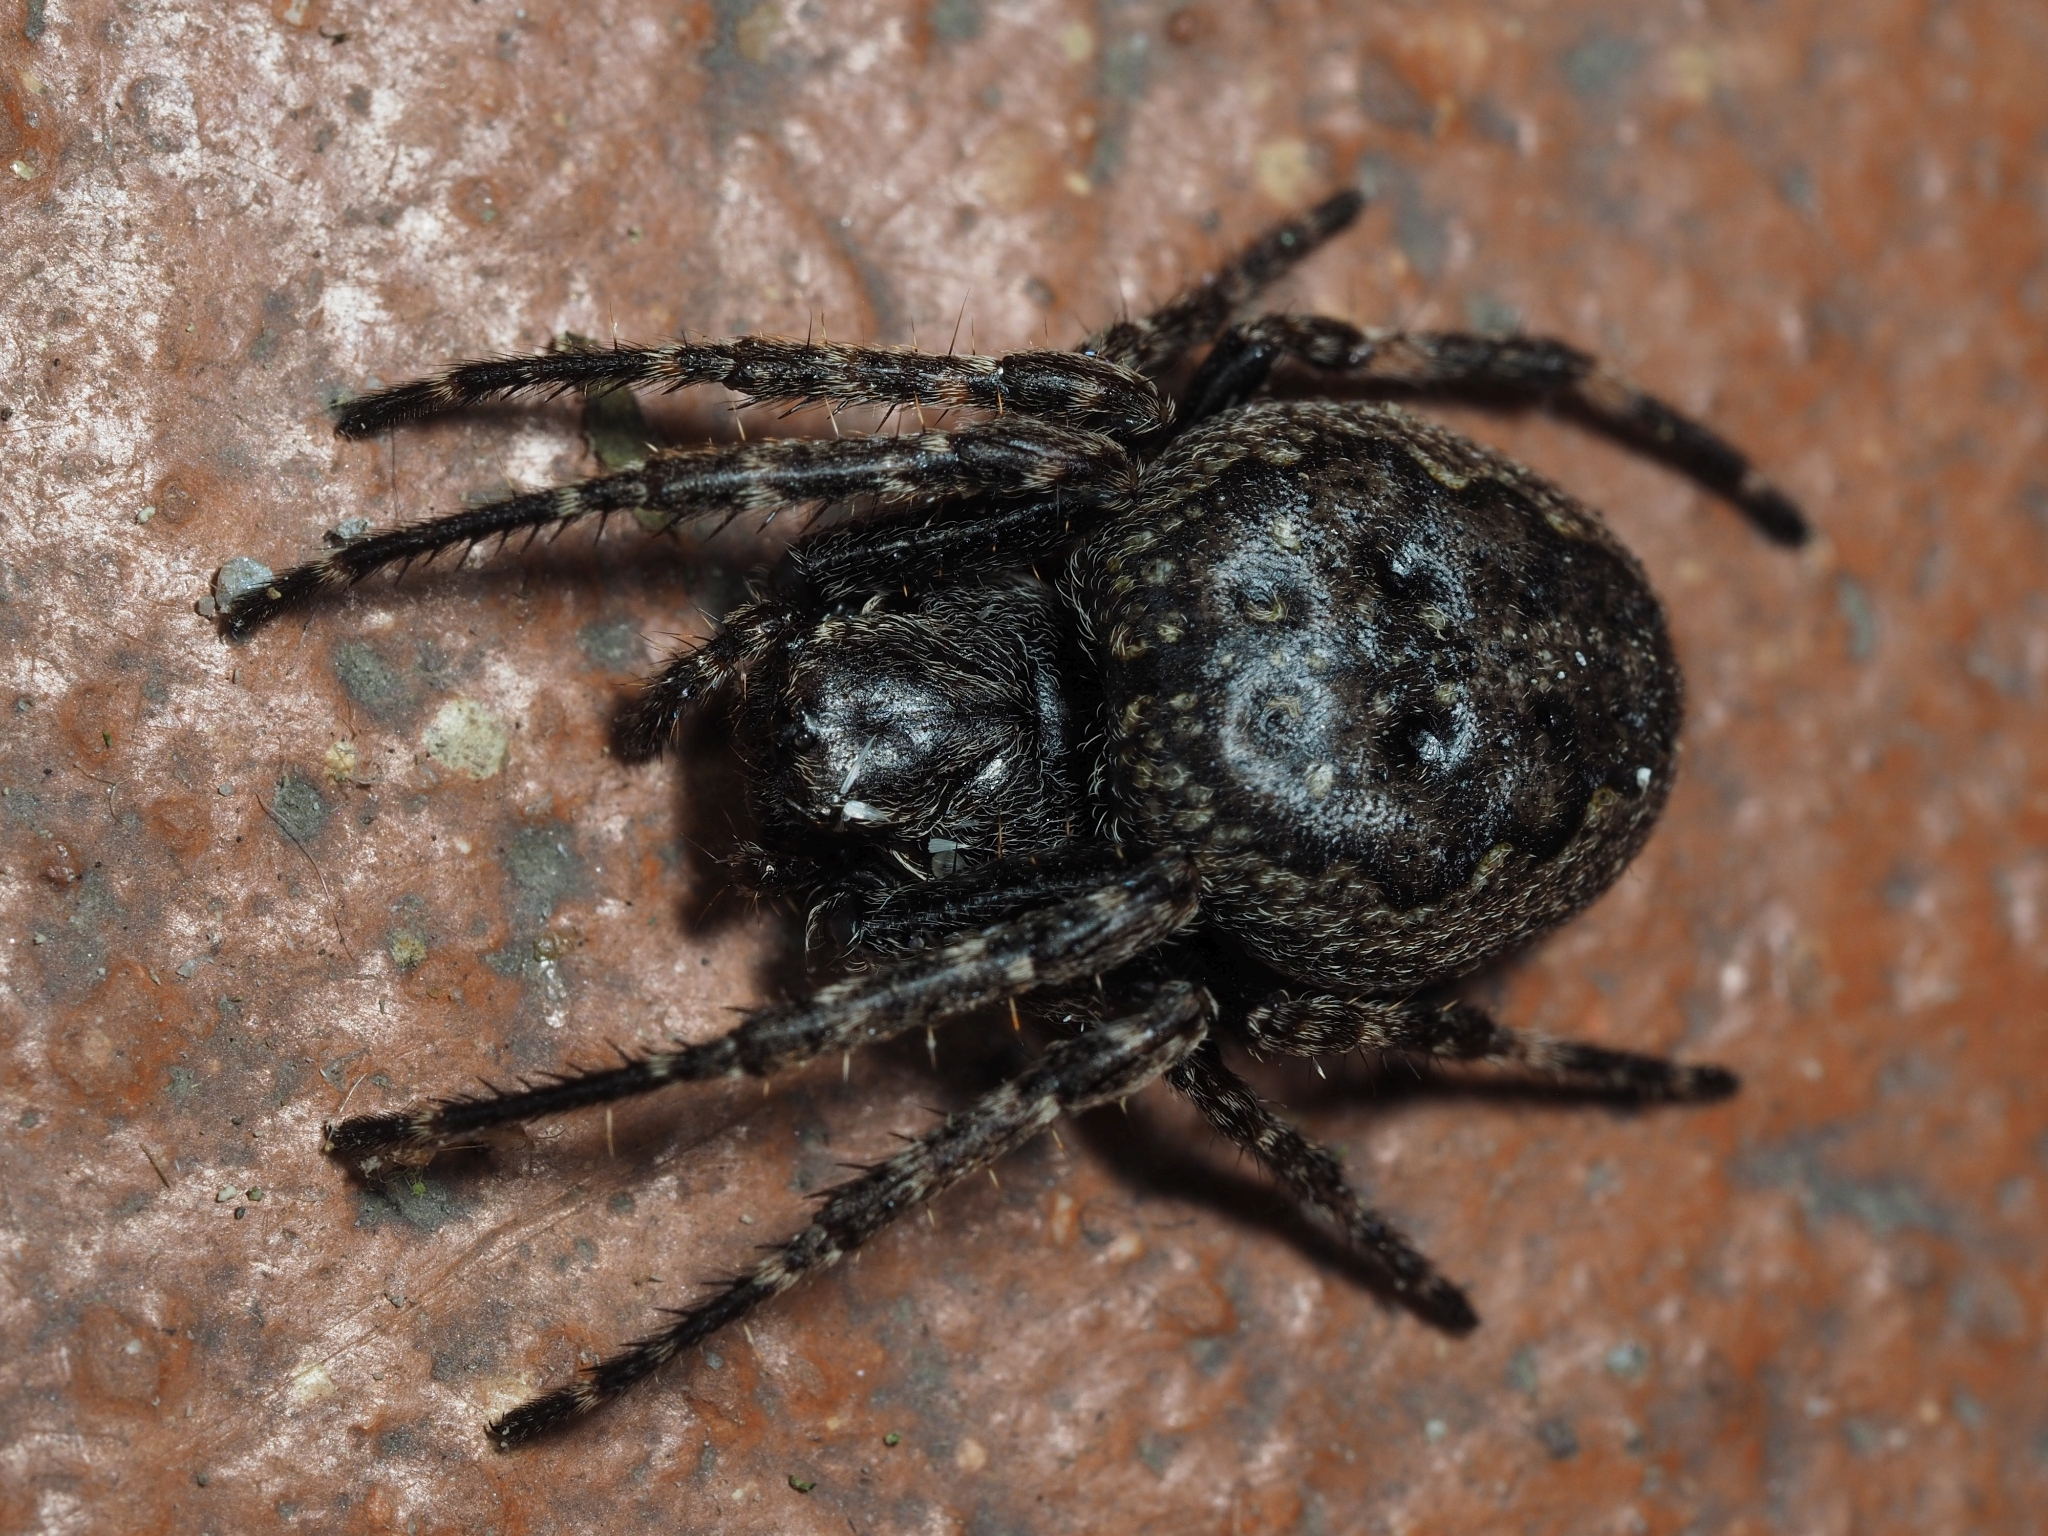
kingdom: Animalia
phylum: Arthropoda
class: Arachnida
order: Araneae
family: Araneidae
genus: Nuctenea
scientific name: Nuctenea umbratica
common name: Toad spider
